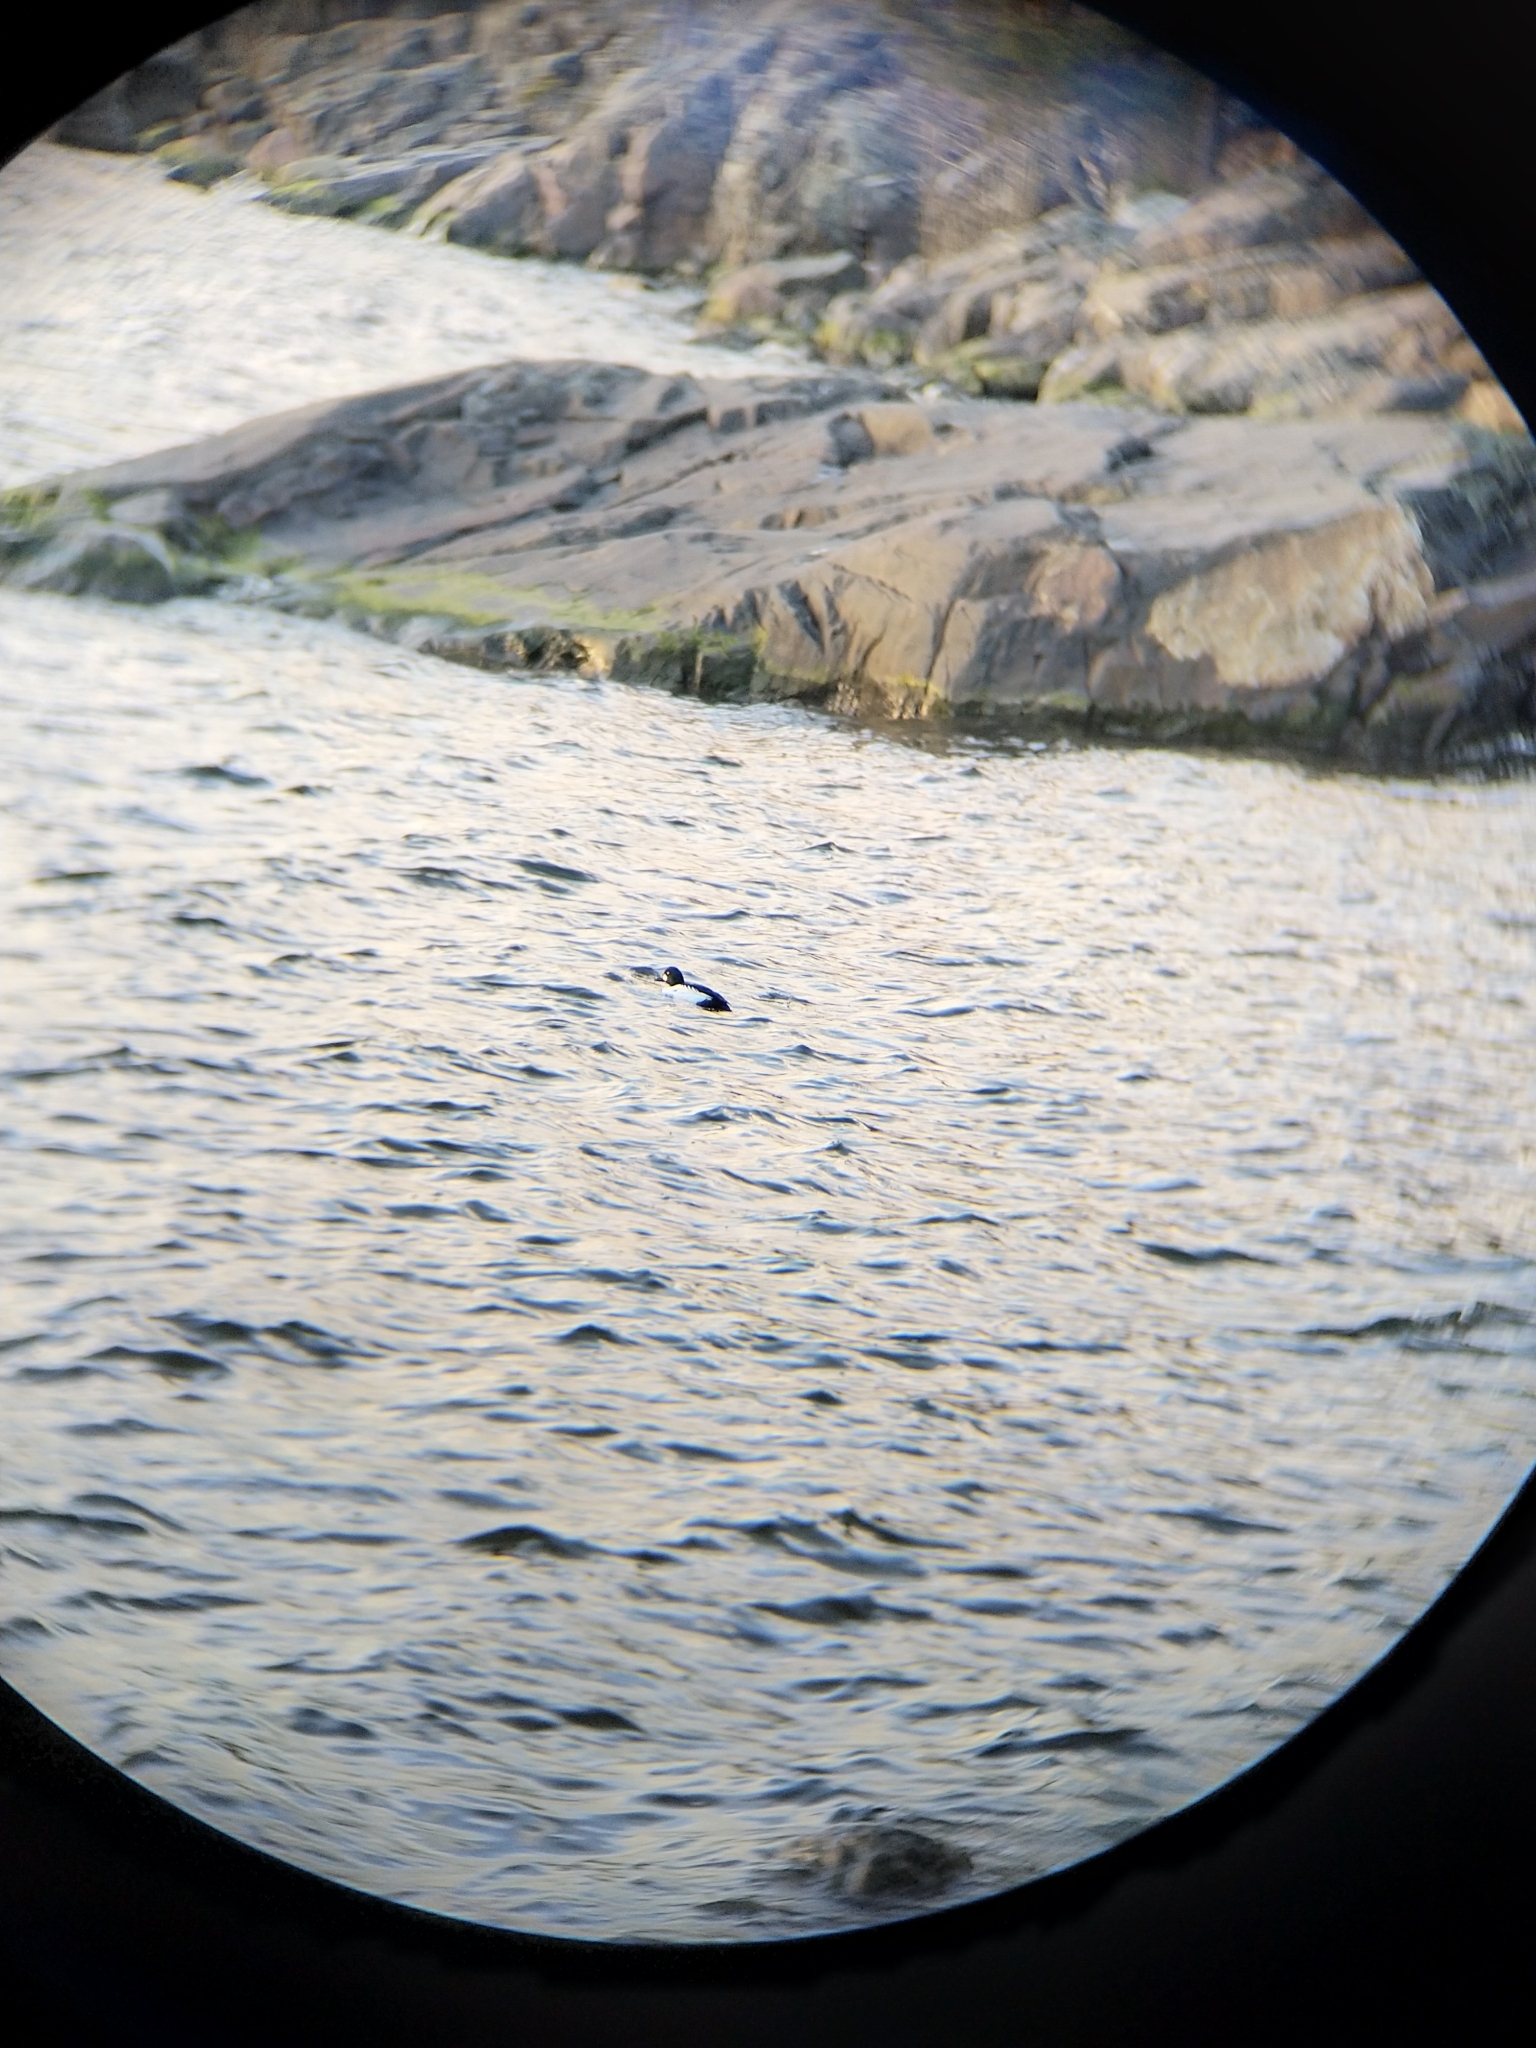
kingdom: Animalia
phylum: Chordata
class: Aves
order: Anseriformes
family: Anatidae
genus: Bucephala
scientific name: Bucephala clangula
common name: Common goldeneye
